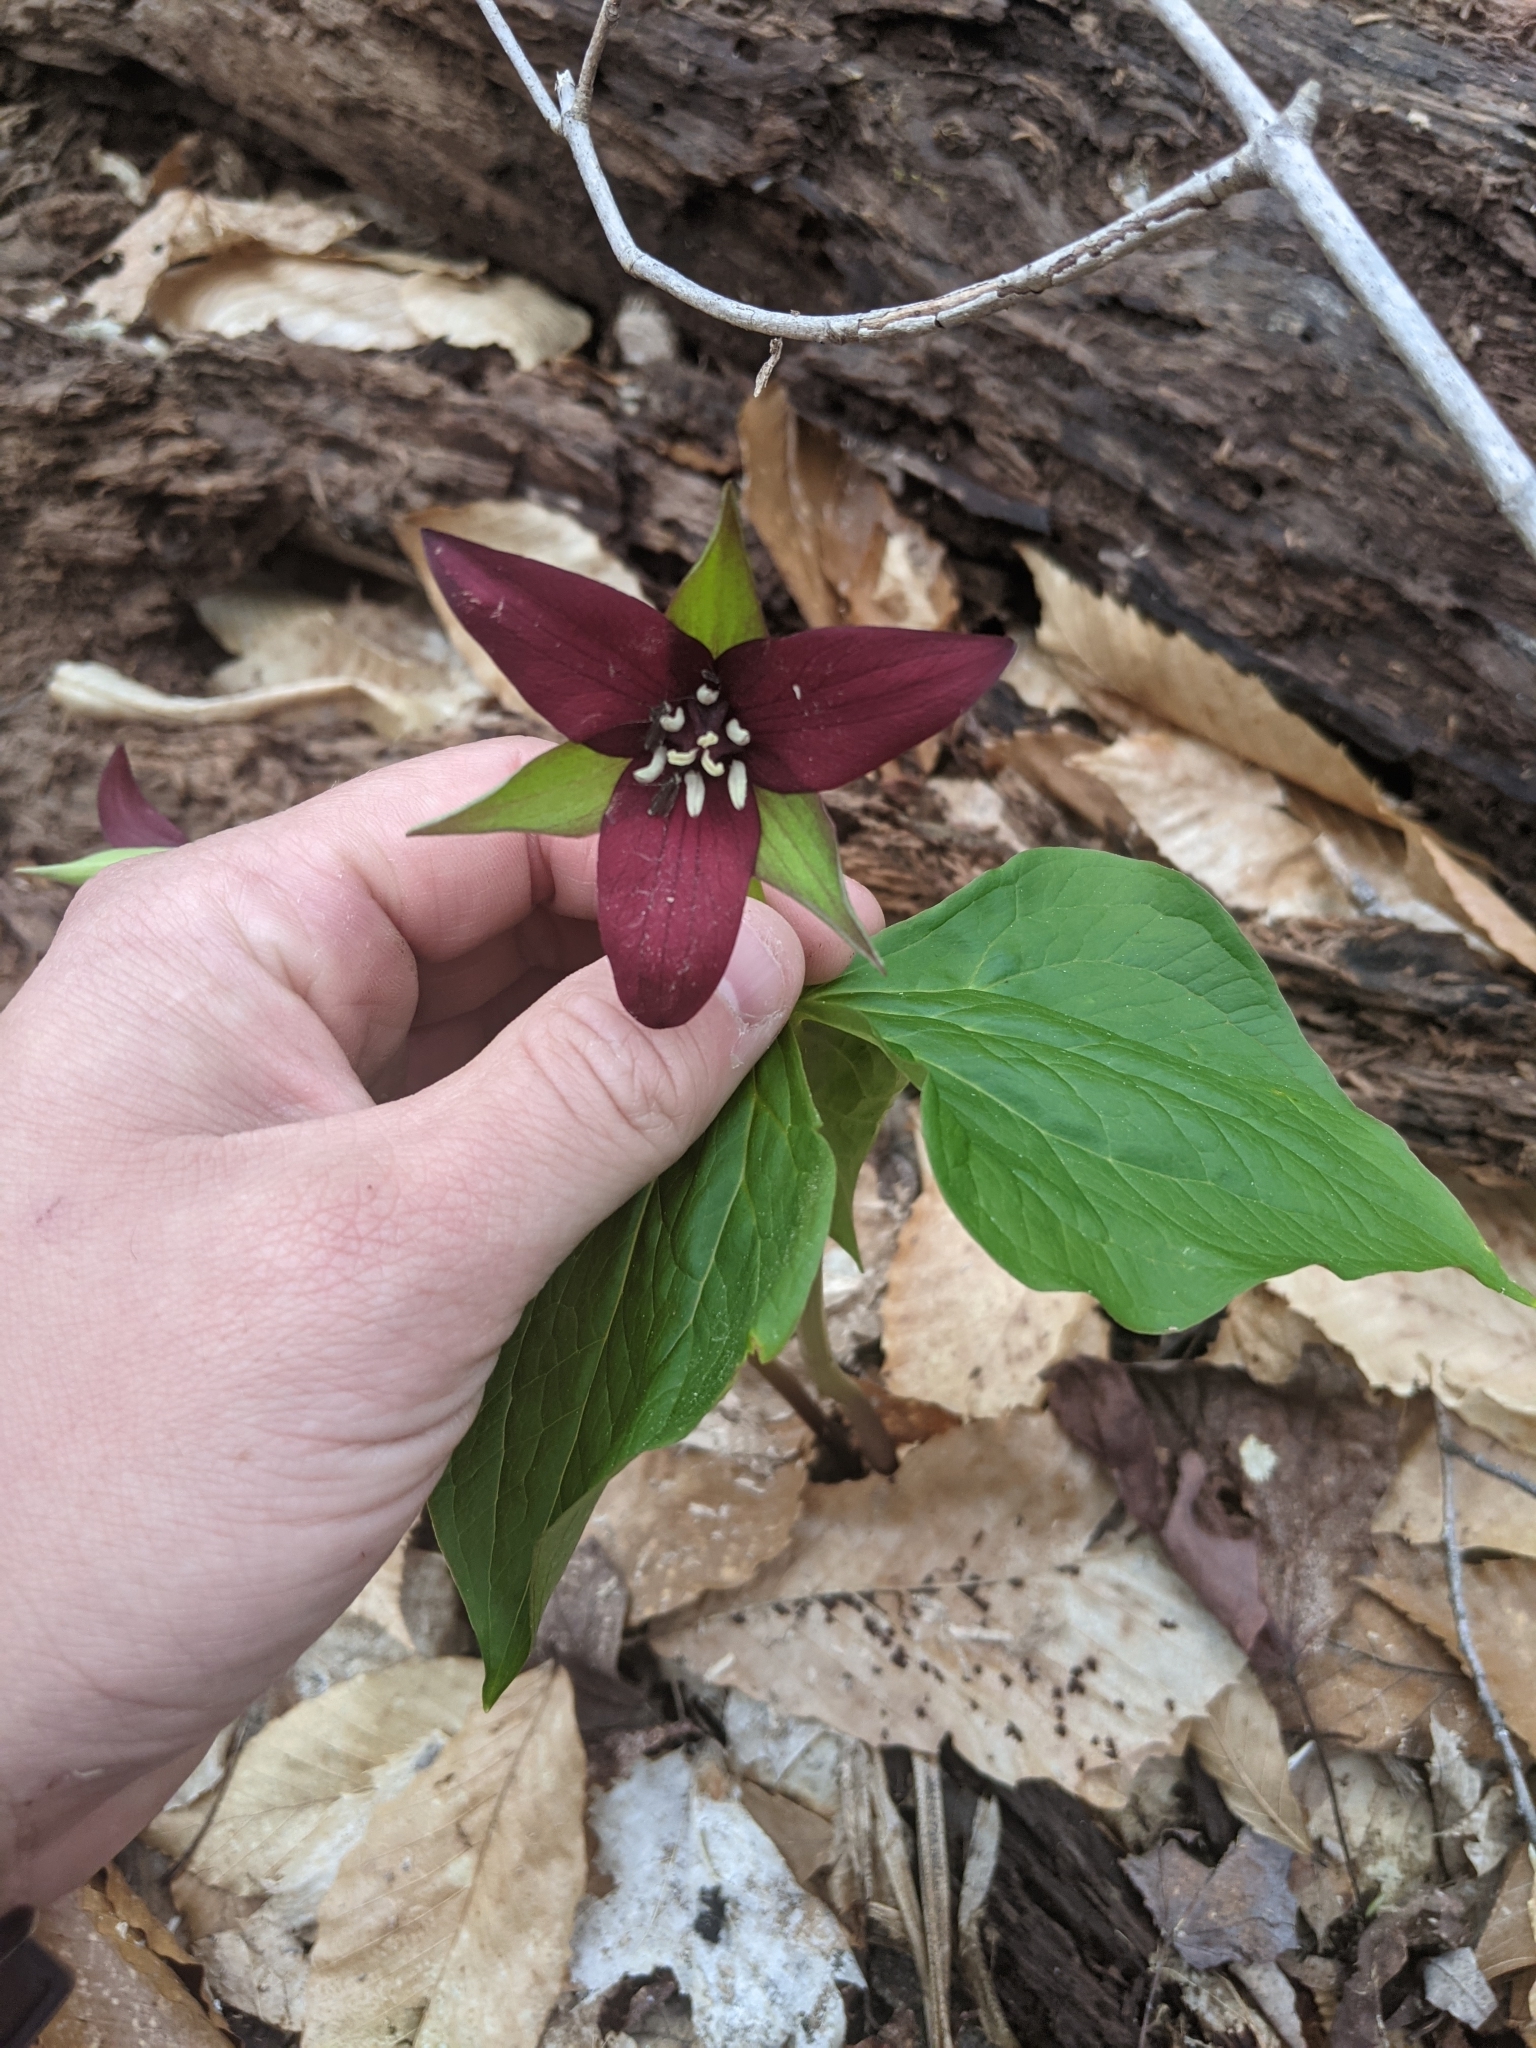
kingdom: Plantae
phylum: Tracheophyta
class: Liliopsida
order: Liliales
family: Melanthiaceae
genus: Trillium
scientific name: Trillium erectum
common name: Purple trillium
